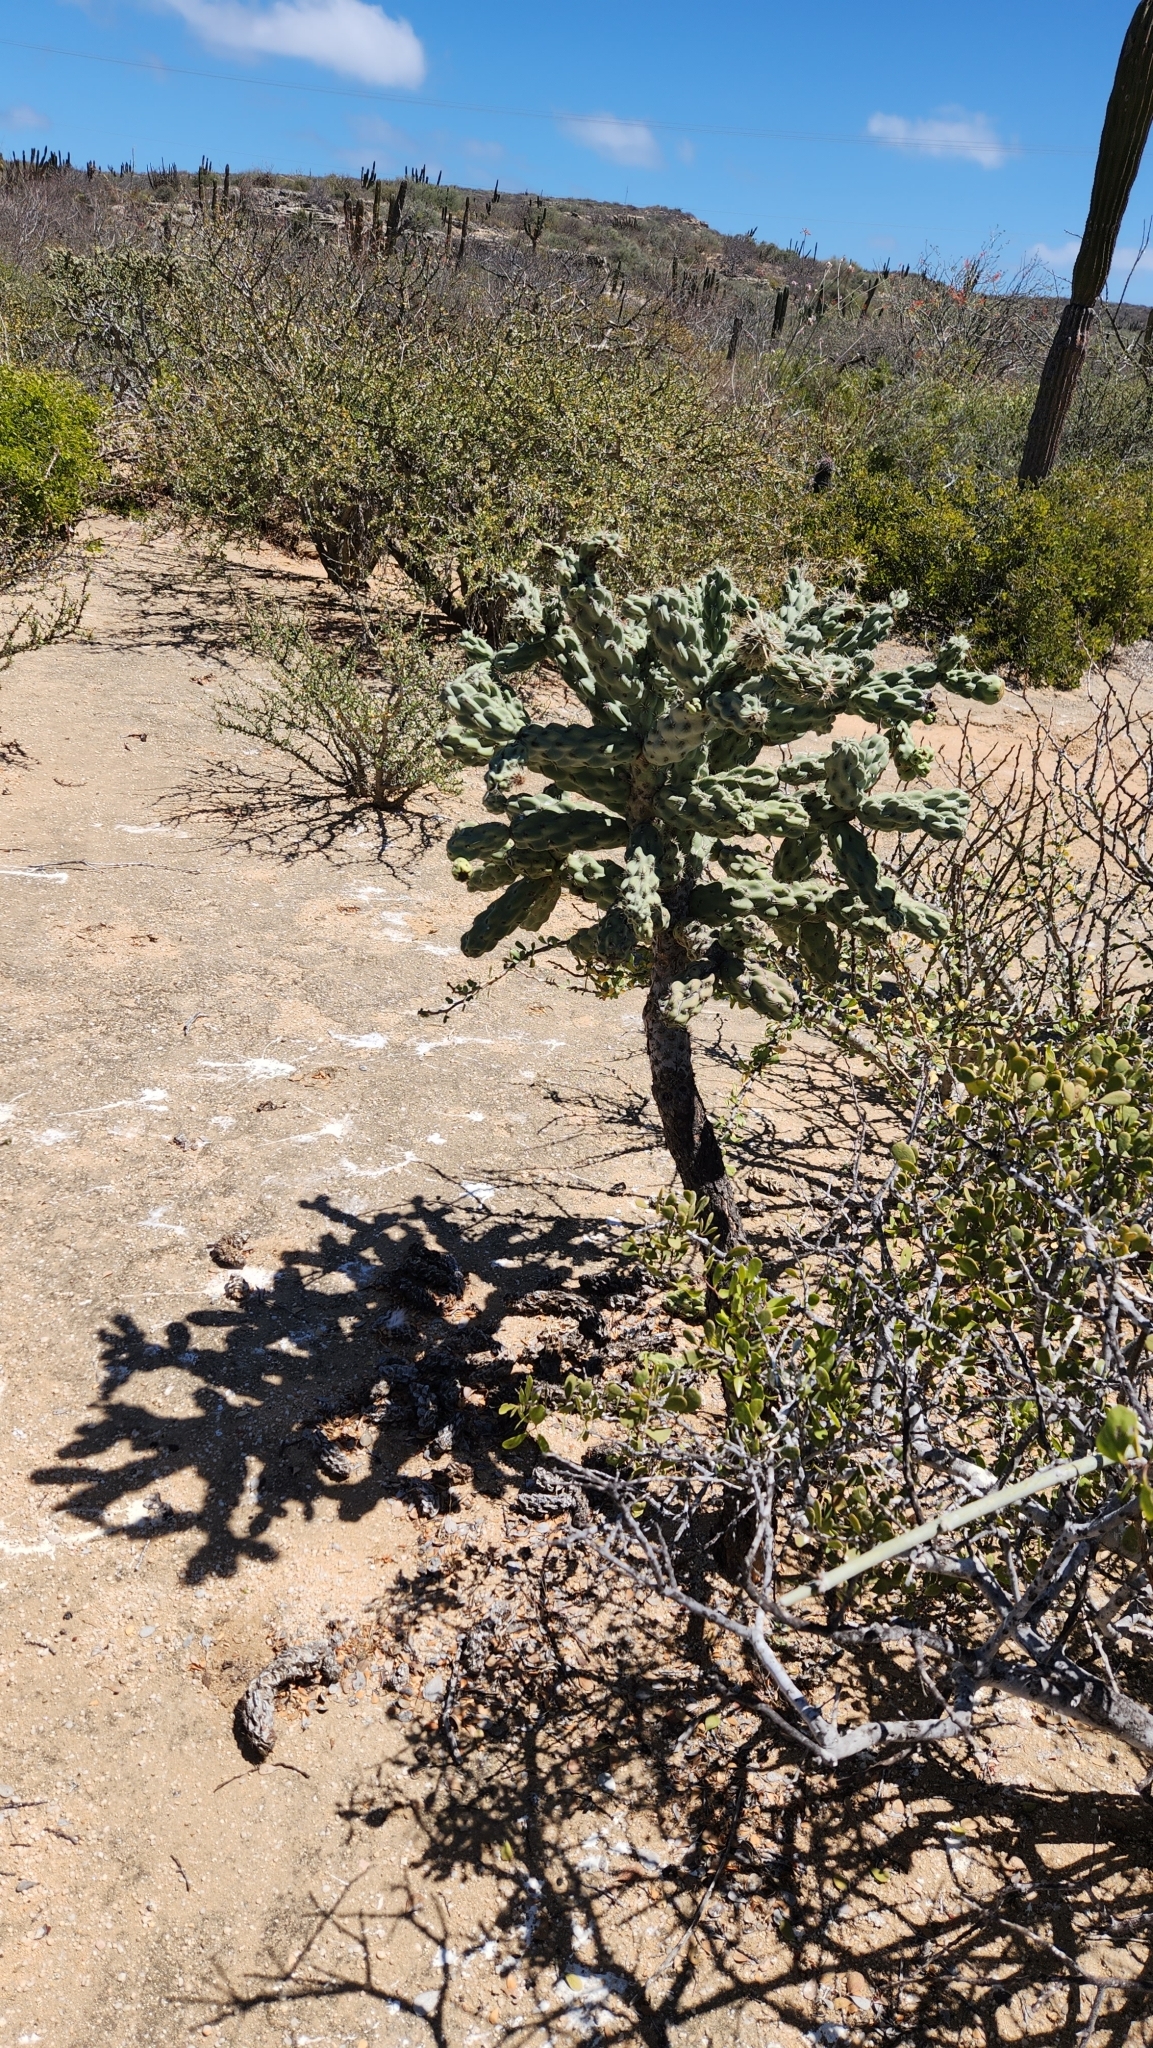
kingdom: Plantae
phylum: Tracheophyta
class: Magnoliopsida
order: Caryophyllales
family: Cactaceae
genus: Cylindropuntia
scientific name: Cylindropuntia cholla
